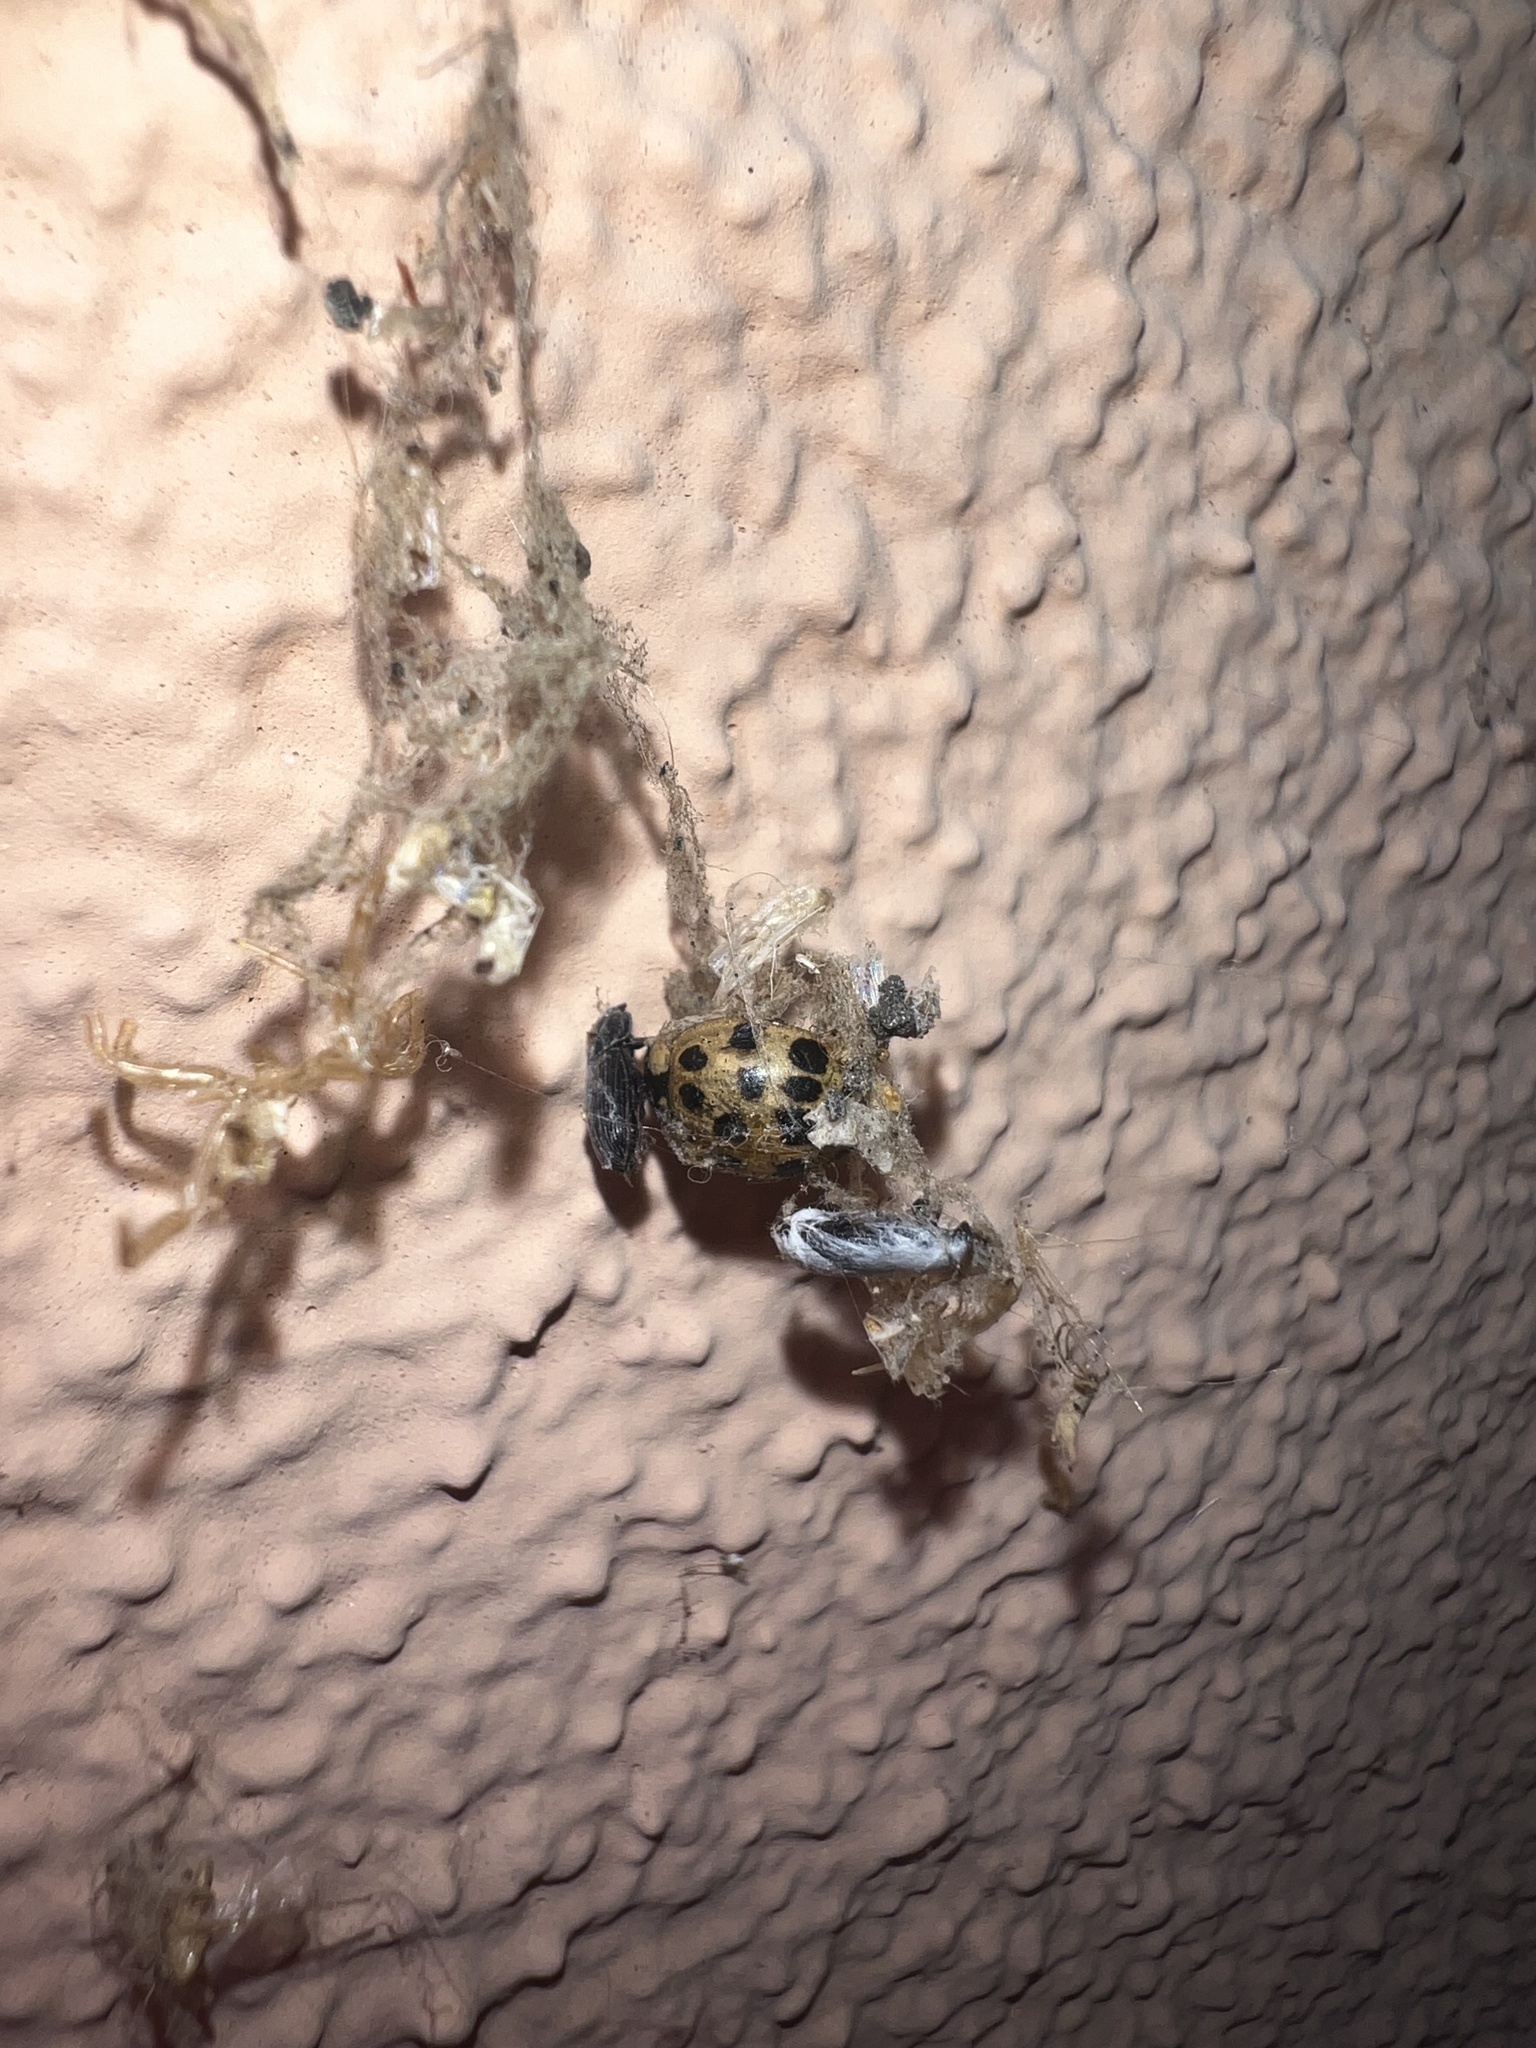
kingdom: Animalia
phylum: Arthropoda
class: Insecta
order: Coleoptera
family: Coccinellidae
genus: Harmonia
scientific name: Harmonia axyridis
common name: Harlequin ladybird
